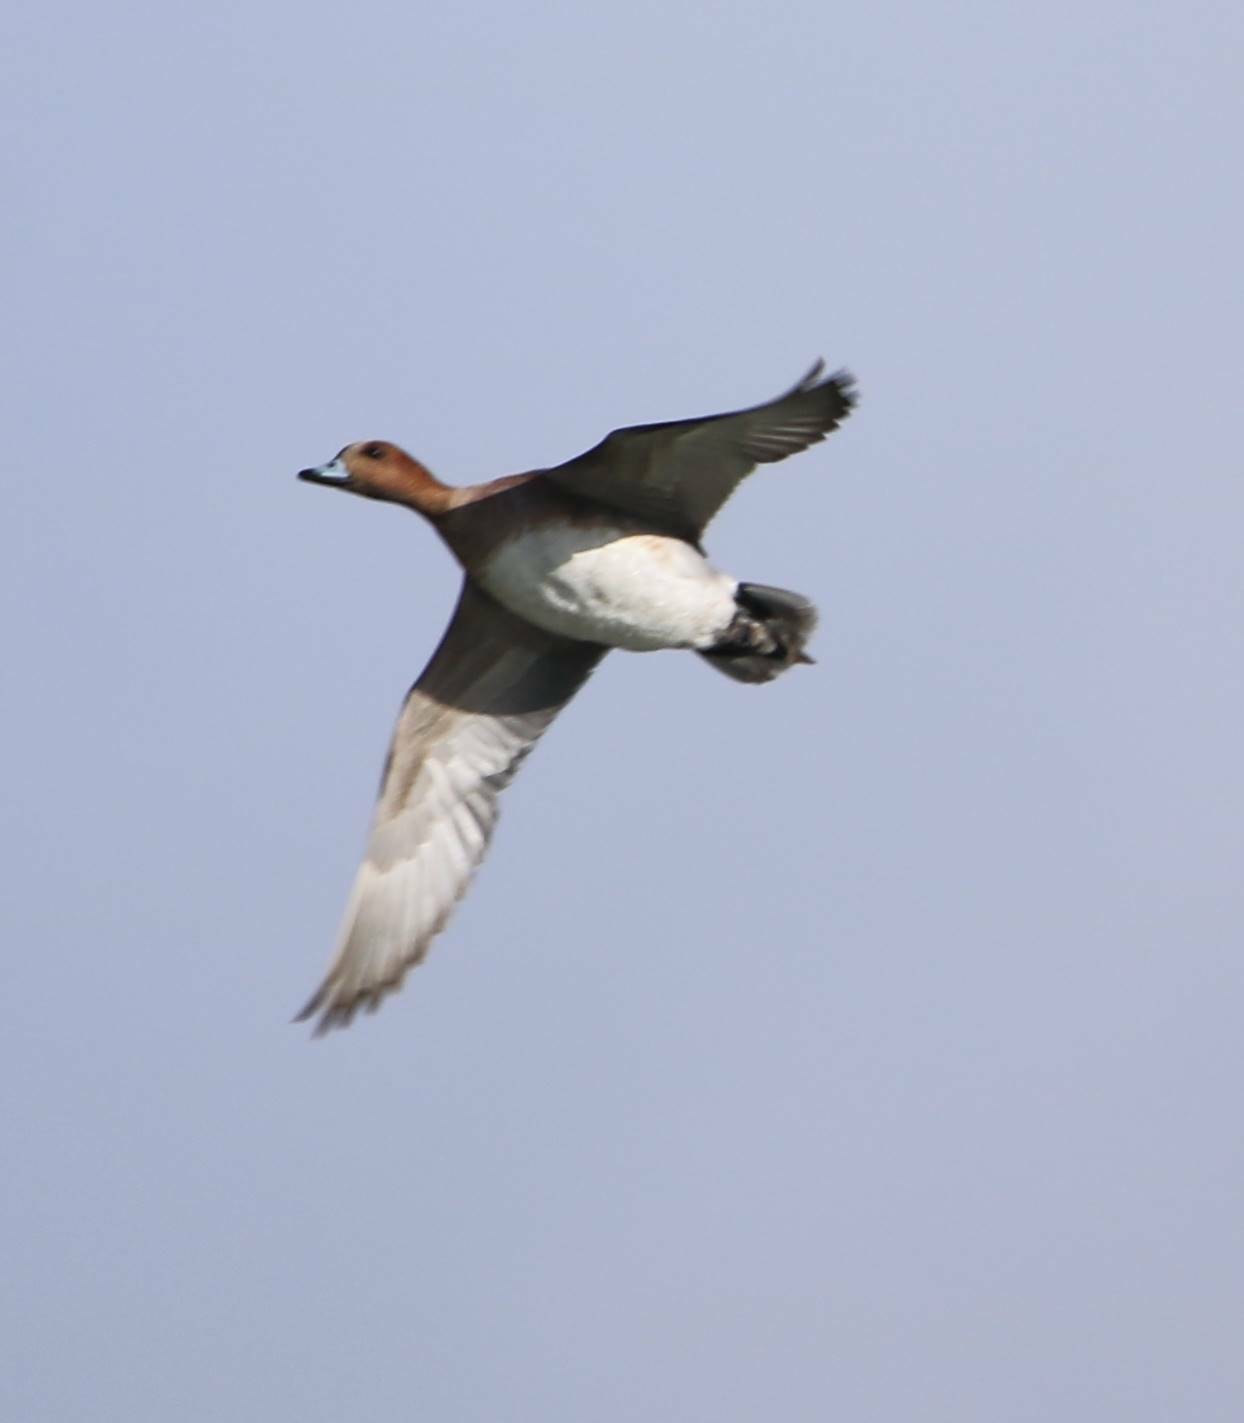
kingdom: Animalia
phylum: Chordata
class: Aves
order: Anseriformes
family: Anatidae
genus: Mareca
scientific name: Mareca penelope
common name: Eurasian wigeon
